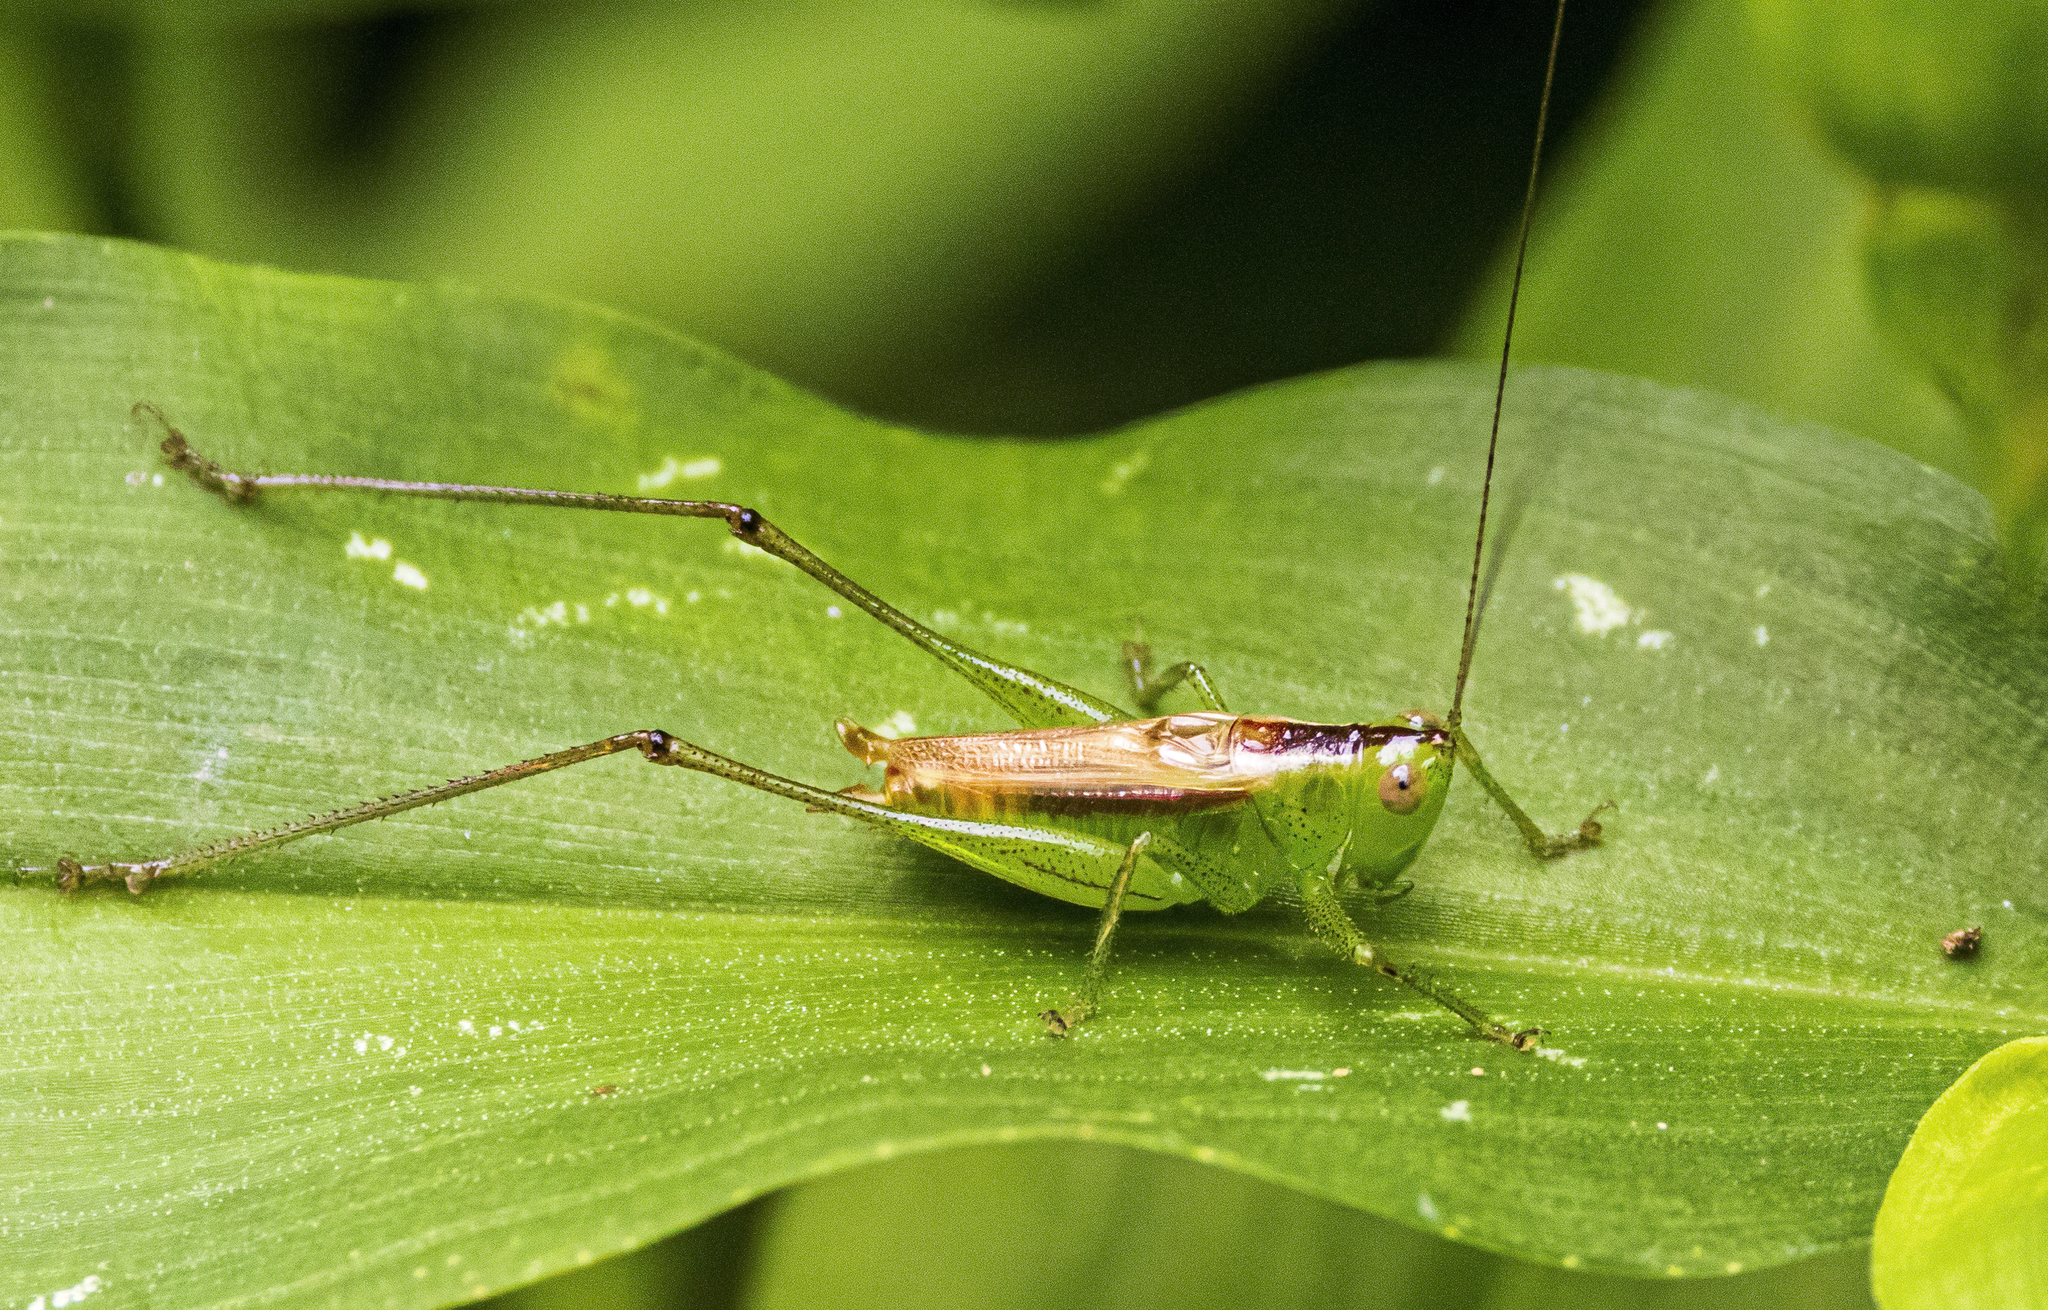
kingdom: Animalia
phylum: Arthropoda
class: Insecta
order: Orthoptera
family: Tettigoniidae
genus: Conocephalus
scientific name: Conocephalus brevipennis
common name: Short-winged meadow katydid
